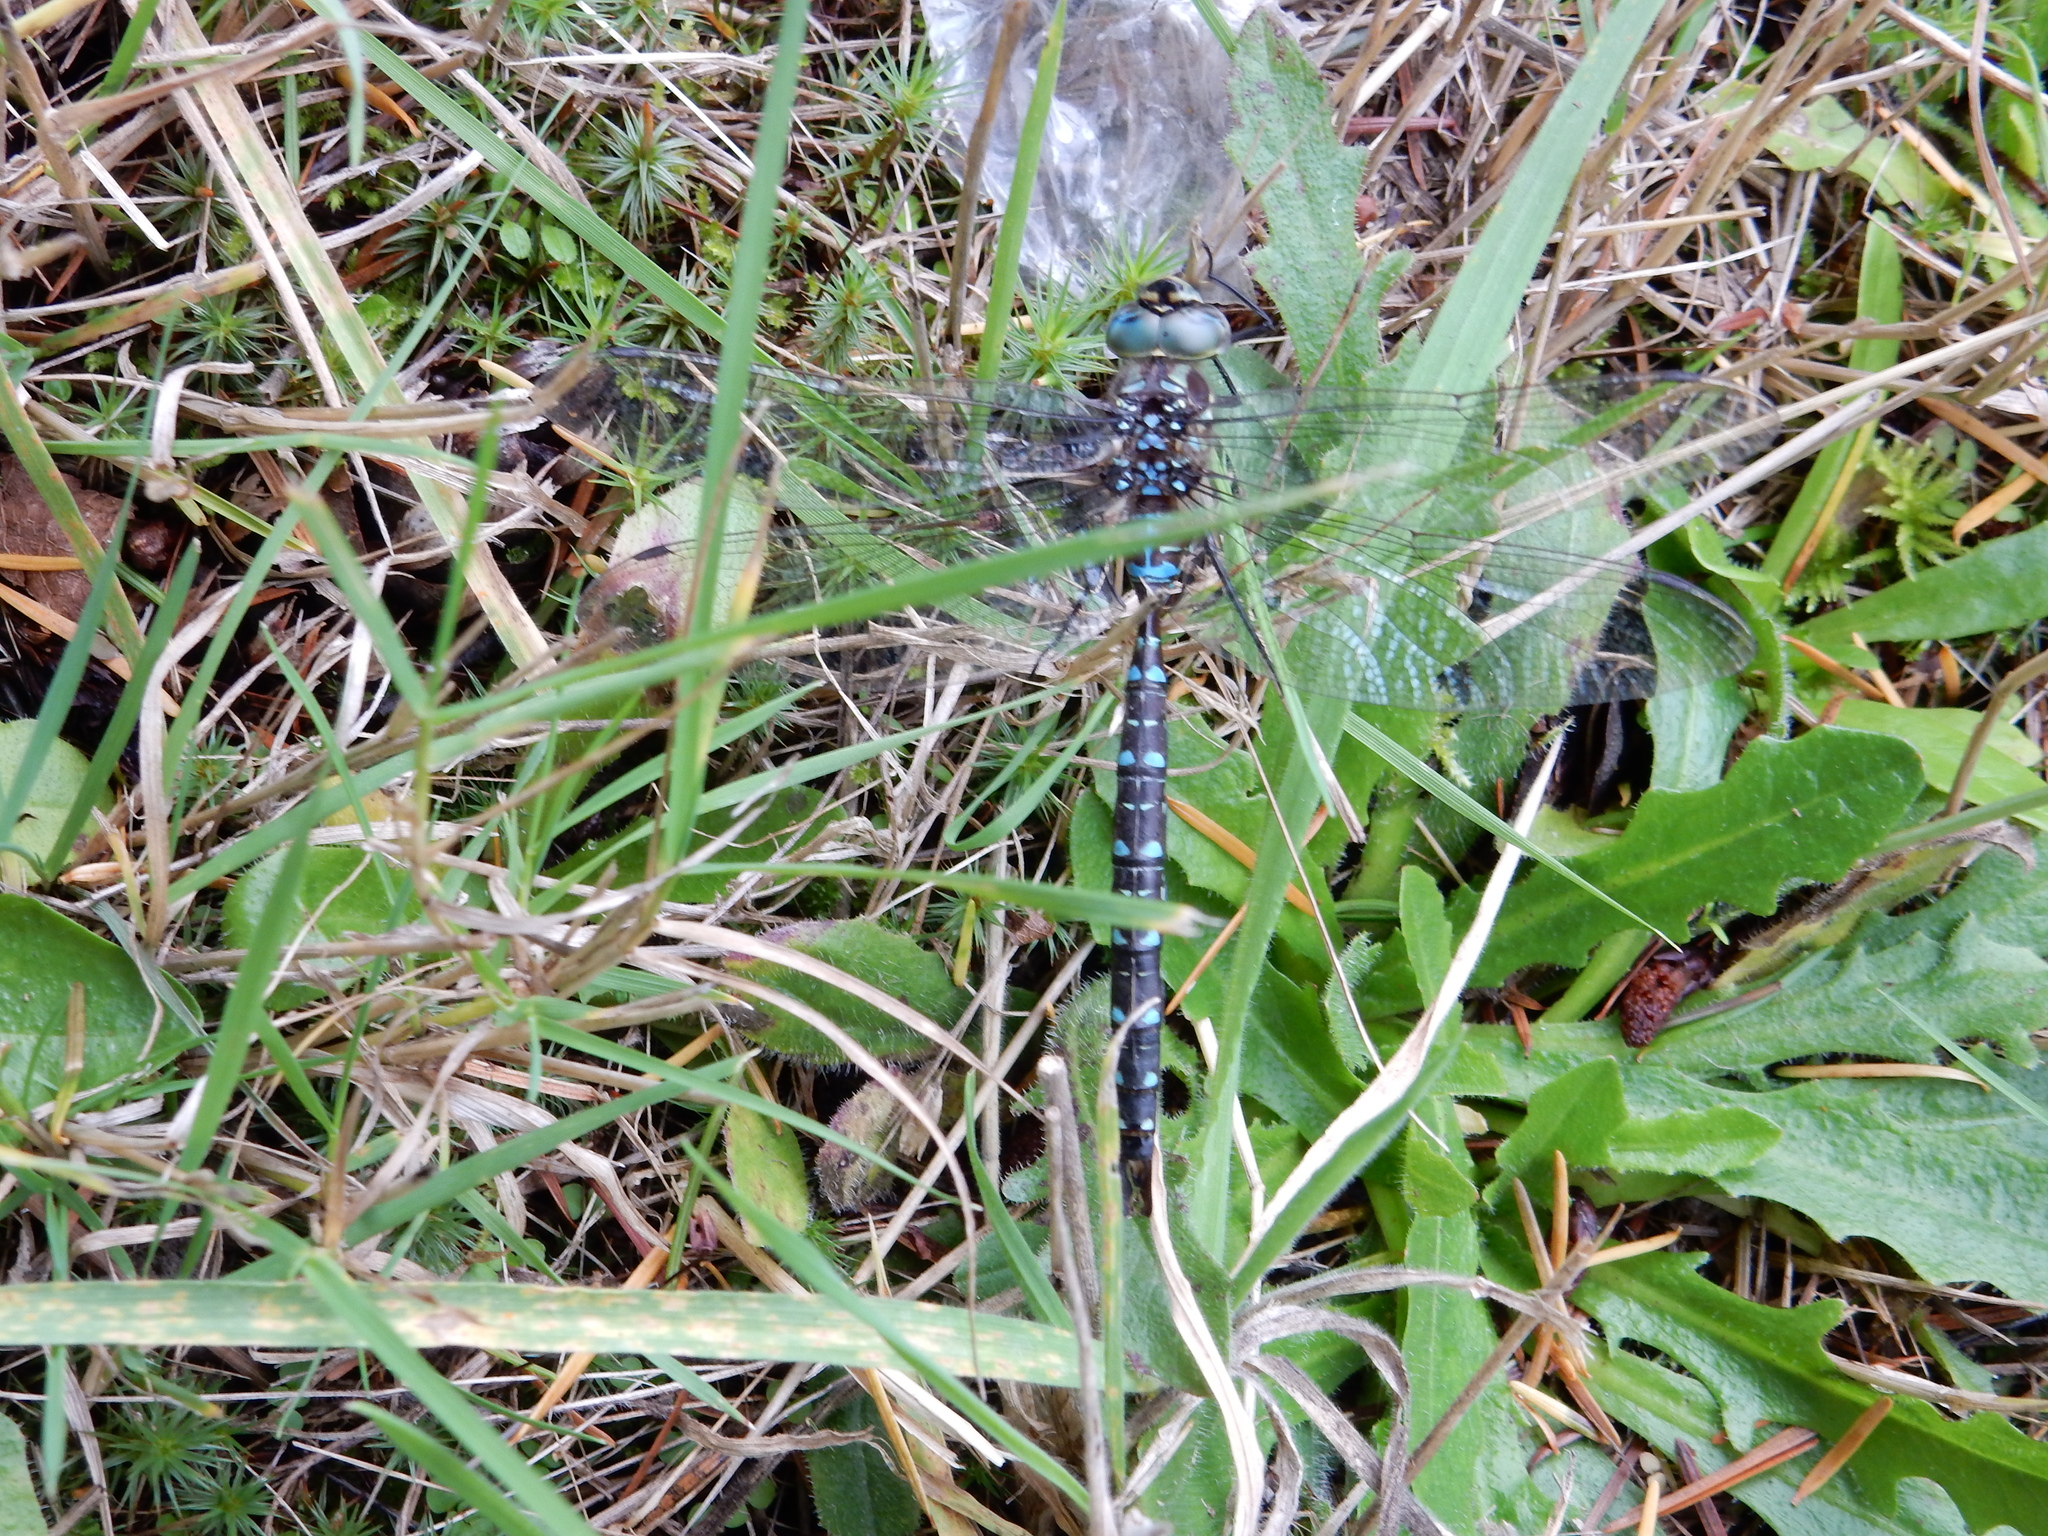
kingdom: Animalia
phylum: Arthropoda
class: Insecta
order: Odonata
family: Aeshnidae
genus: Aeshna
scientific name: Aeshna umbrosa
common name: Shadow darner
